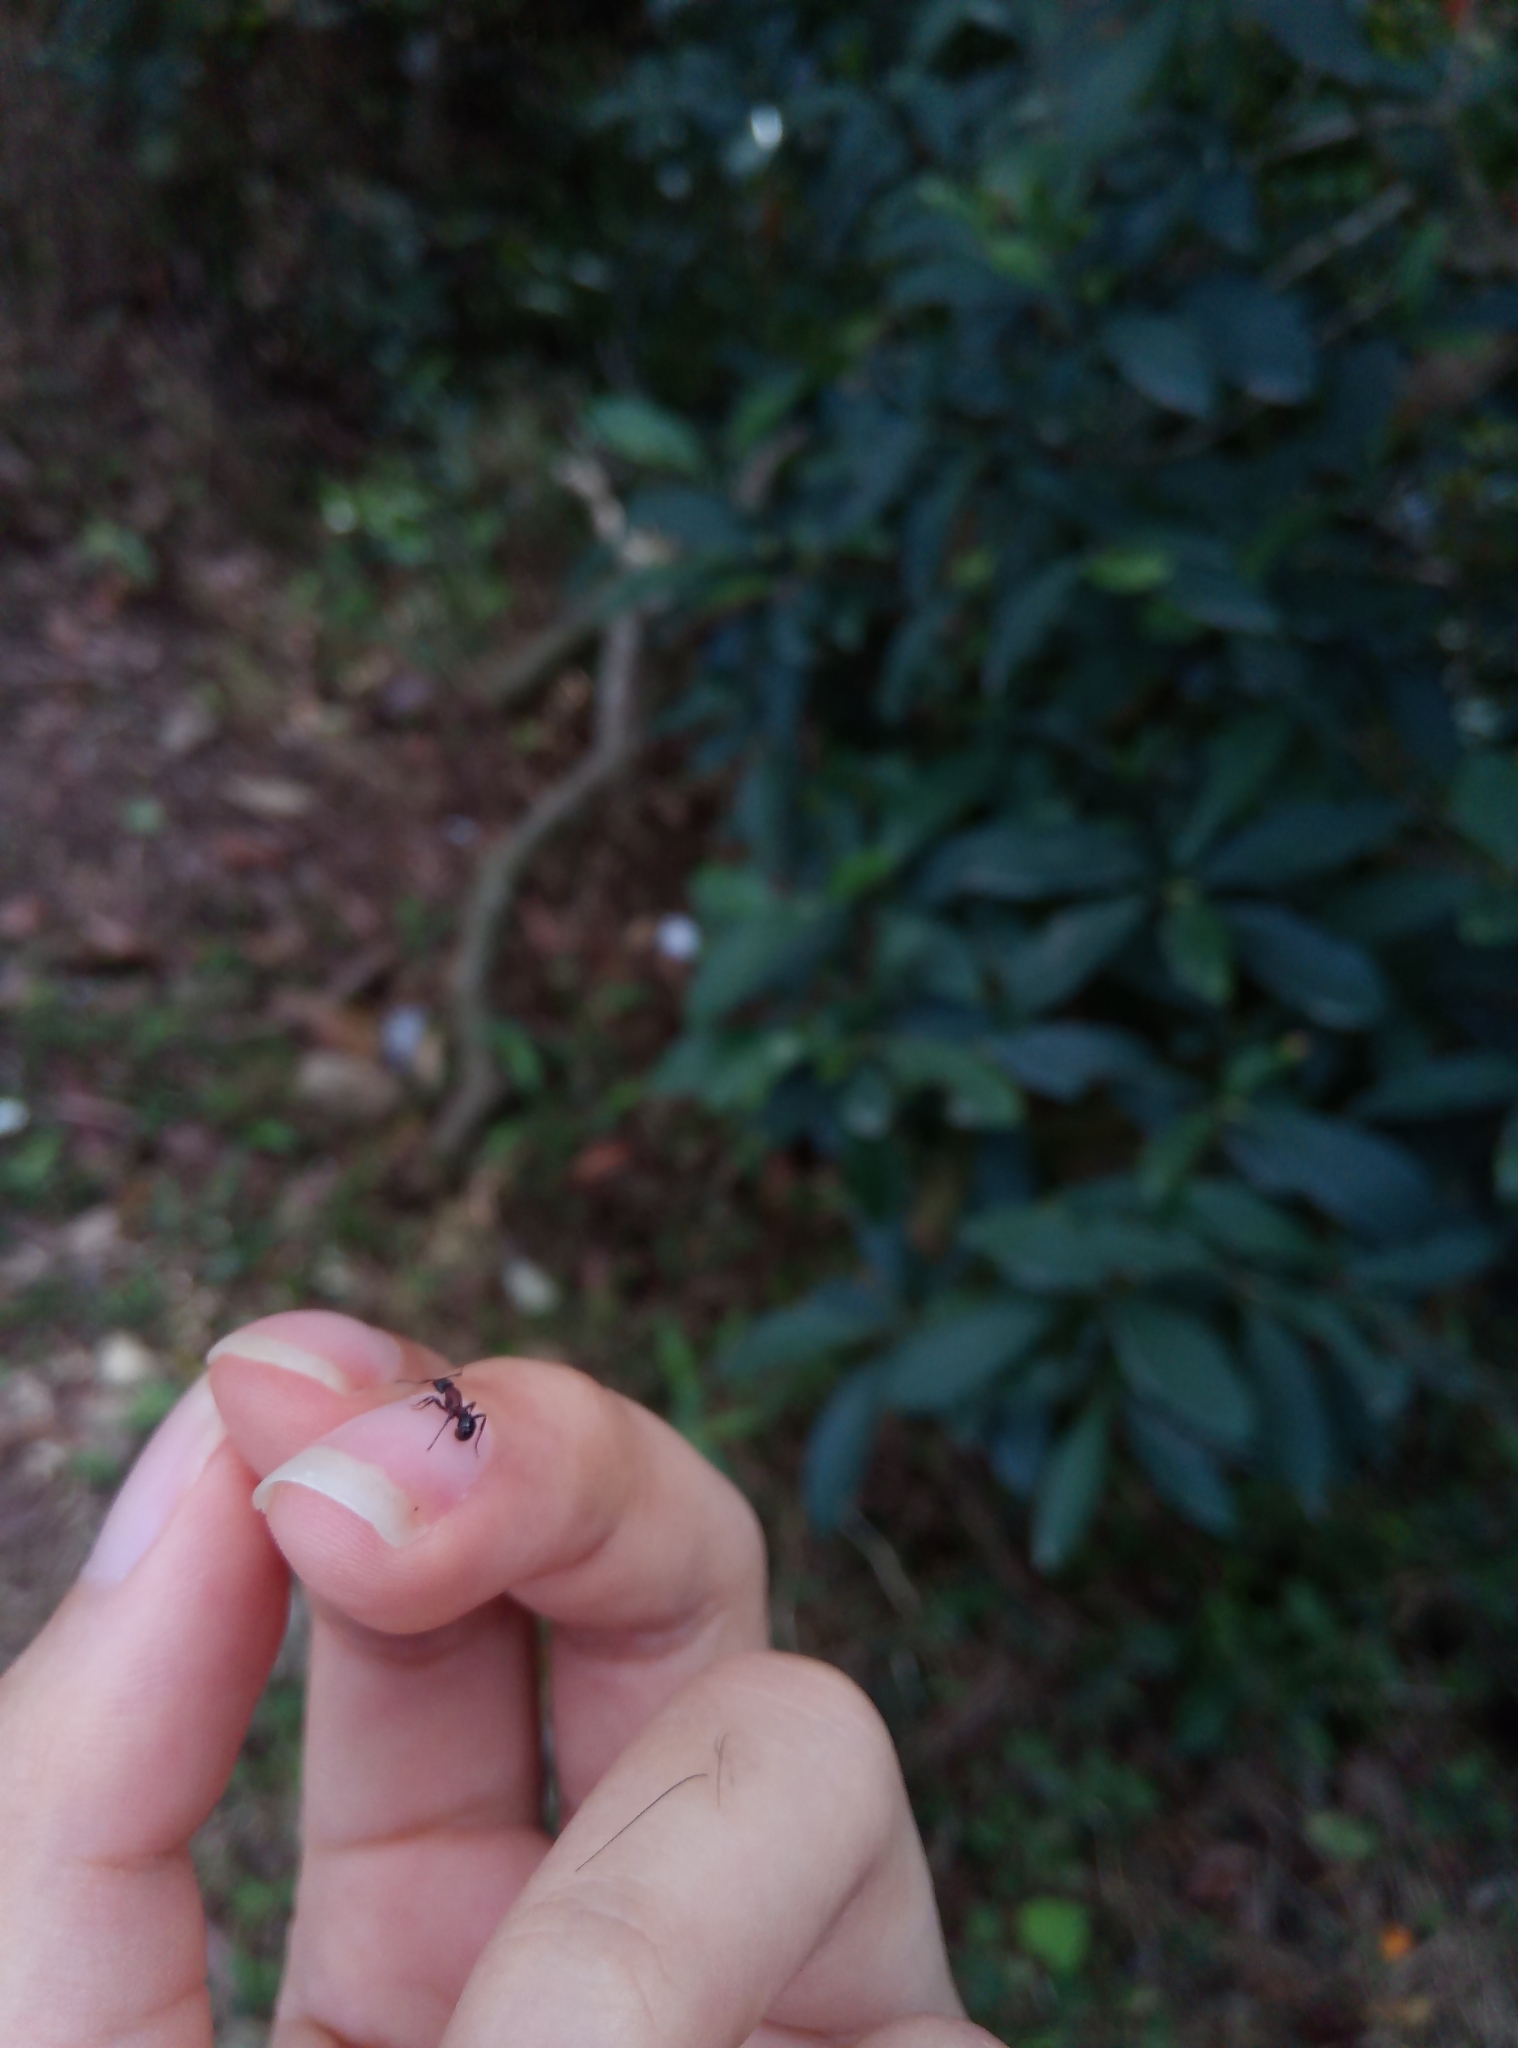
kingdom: Animalia
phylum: Arthropoda
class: Insecta
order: Hymenoptera
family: Formicidae
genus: Stictoponera
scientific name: Stictoponera bicolor
